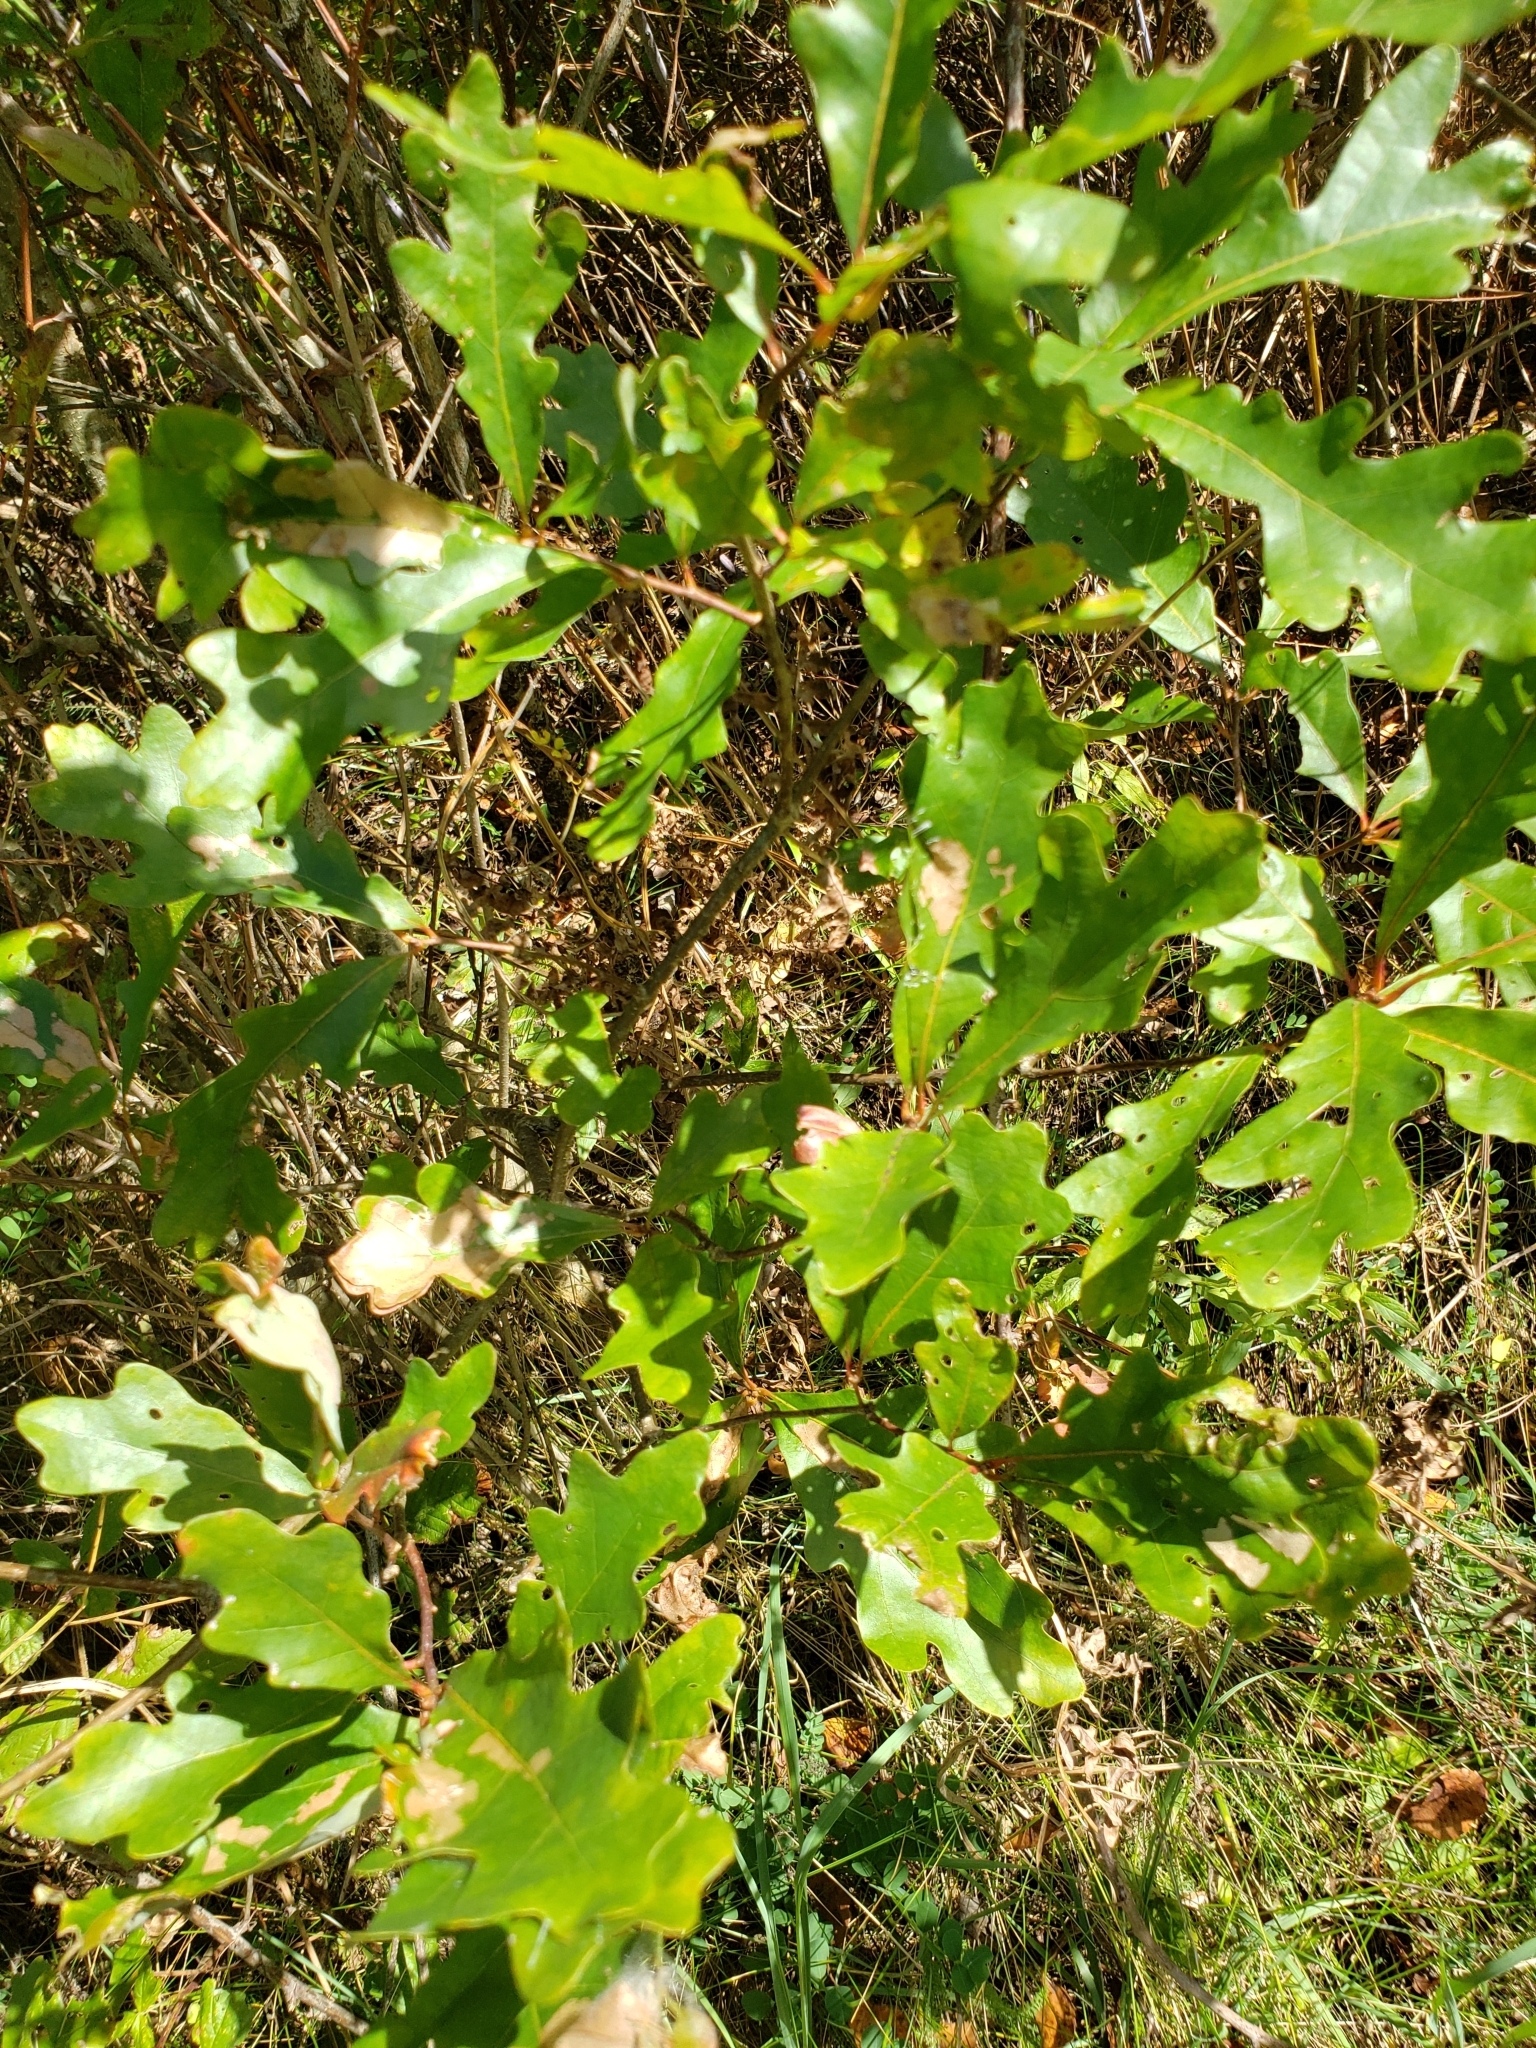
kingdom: Animalia
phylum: Arthropoda
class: Insecta
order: Hymenoptera
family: Cynipidae
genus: Andricus
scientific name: Andricus
